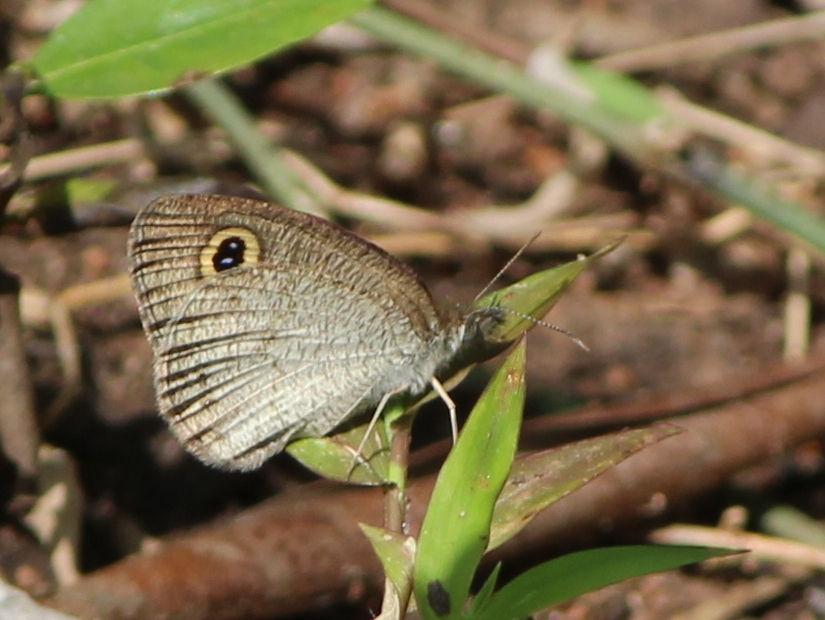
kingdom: Animalia
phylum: Arthropoda
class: Insecta
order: Lepidoptera
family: Nymphalidae
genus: Ypthima
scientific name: Ypthima huebneri
